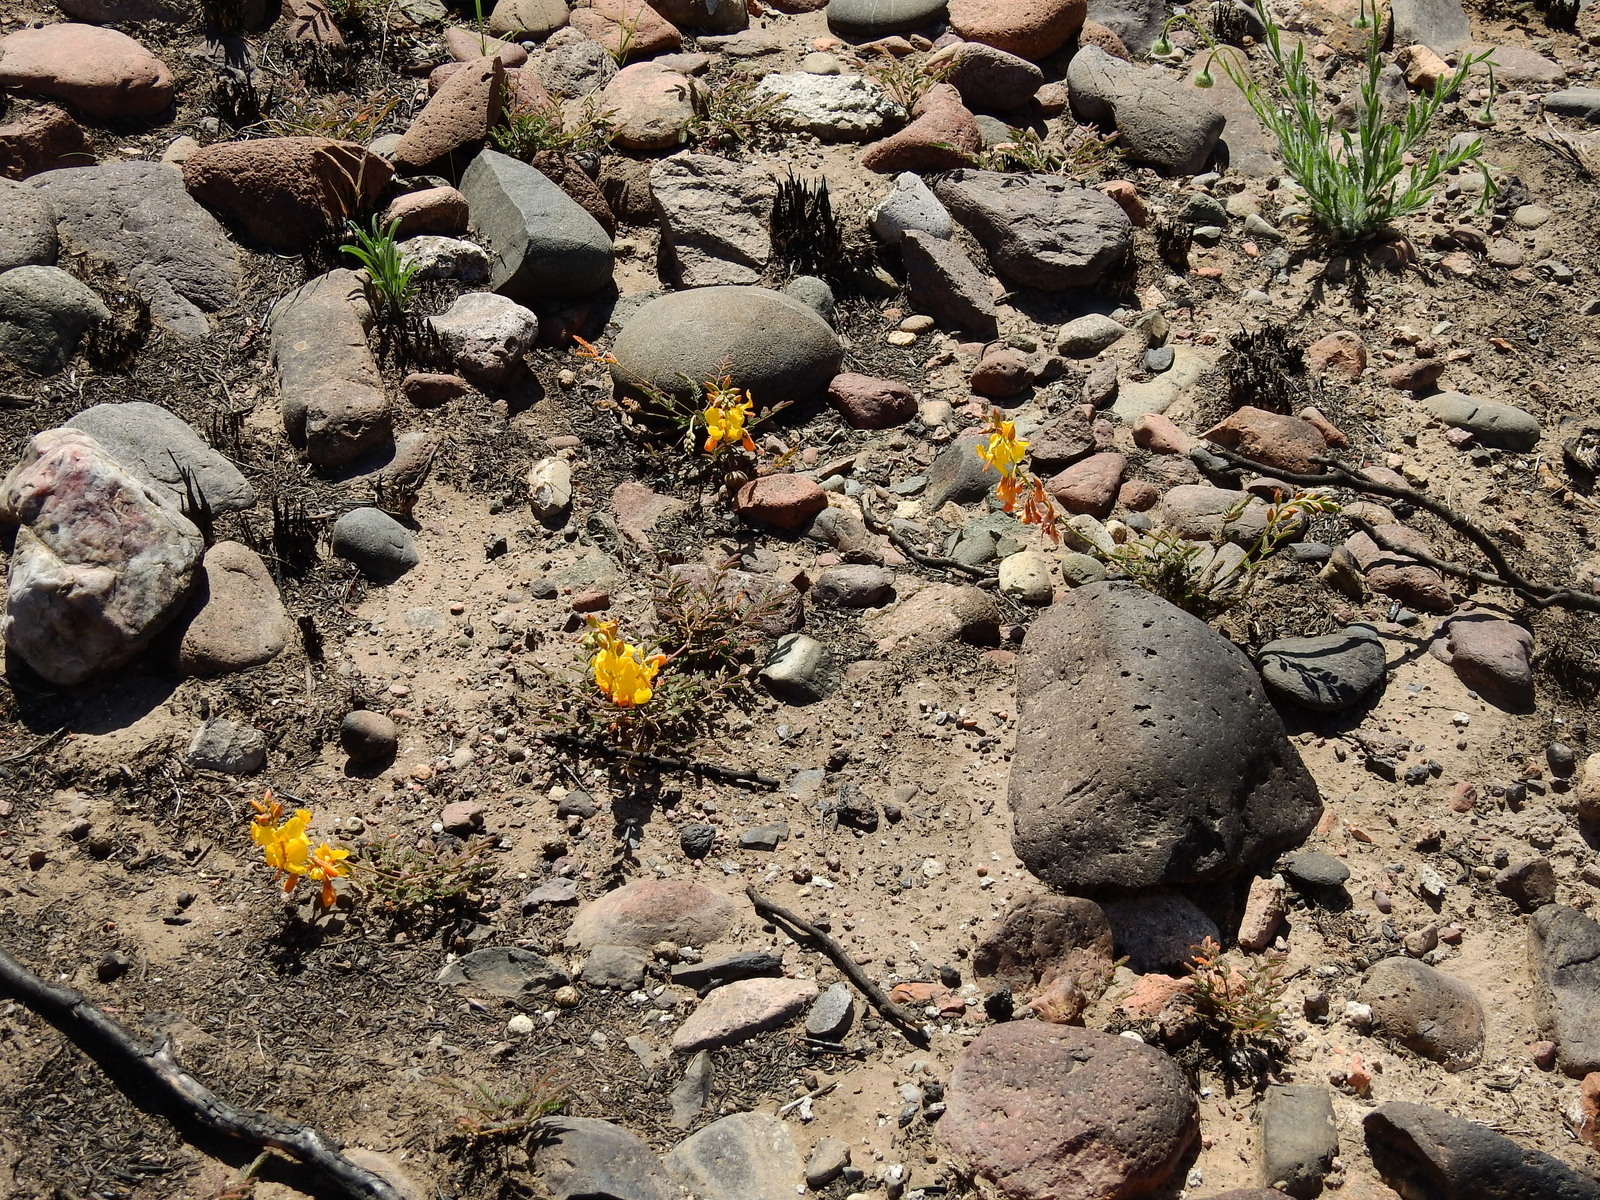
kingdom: Plantae
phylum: Tracheophyta
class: Magnoliopsida
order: Fabales
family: Fabaceae
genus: Hoffmannseggia
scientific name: Hoffmannseggia erecta
